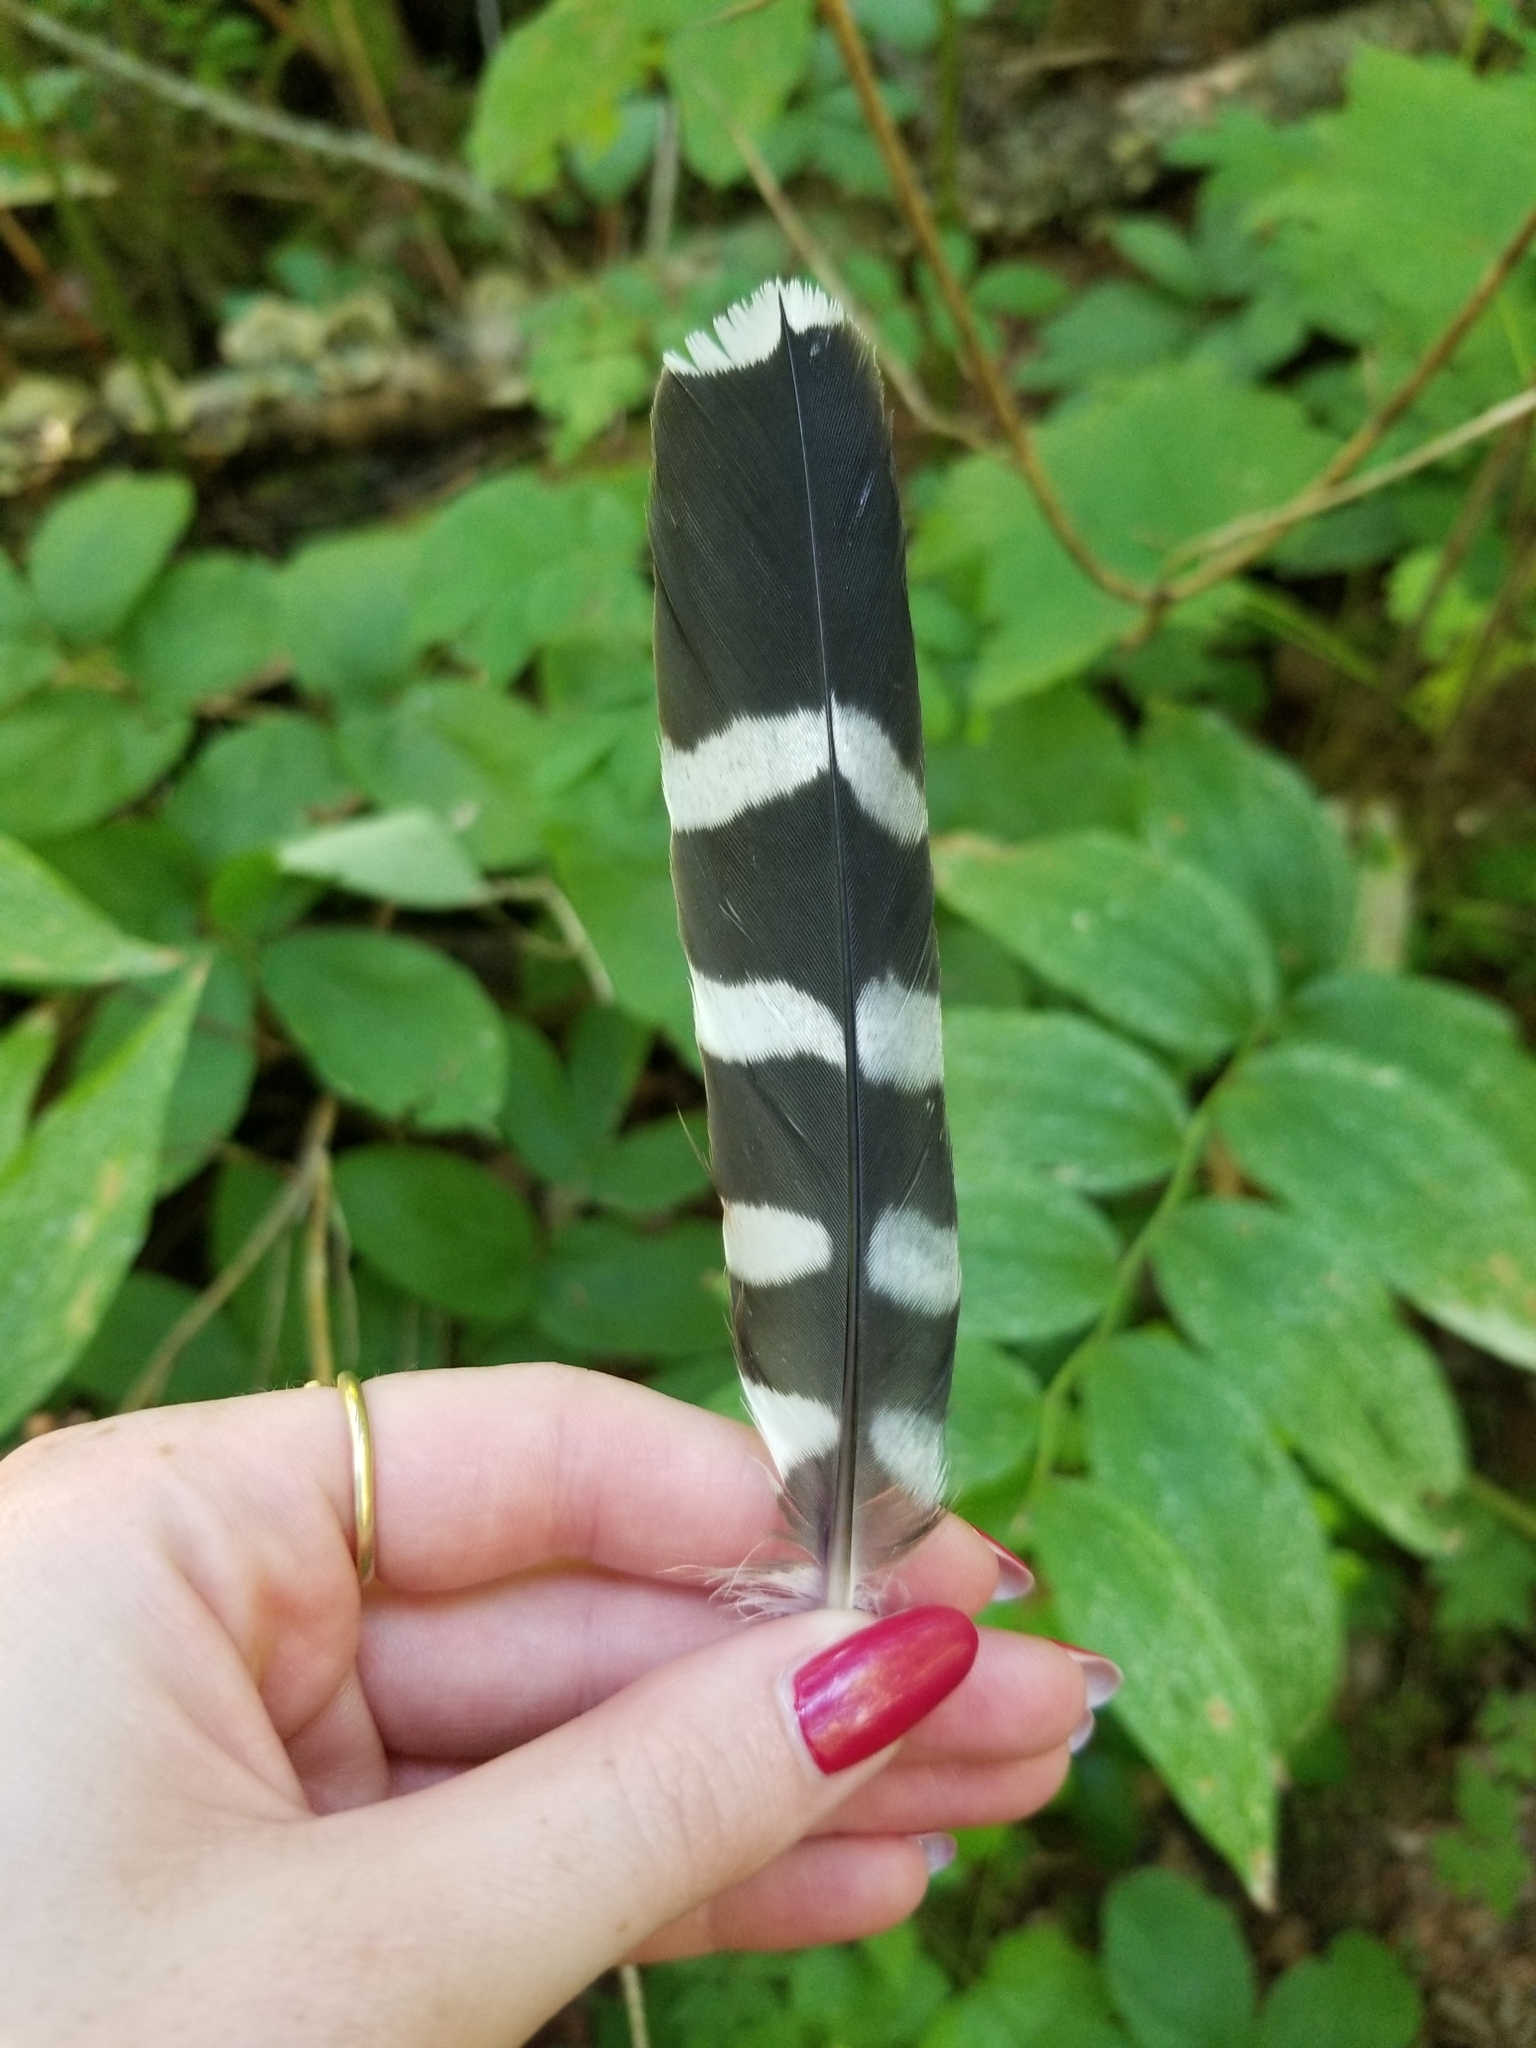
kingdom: Animalia
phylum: Chordata
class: Aves
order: Falconiformes
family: Falconidae
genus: Falco
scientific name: Falco columbarius
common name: Merlin
